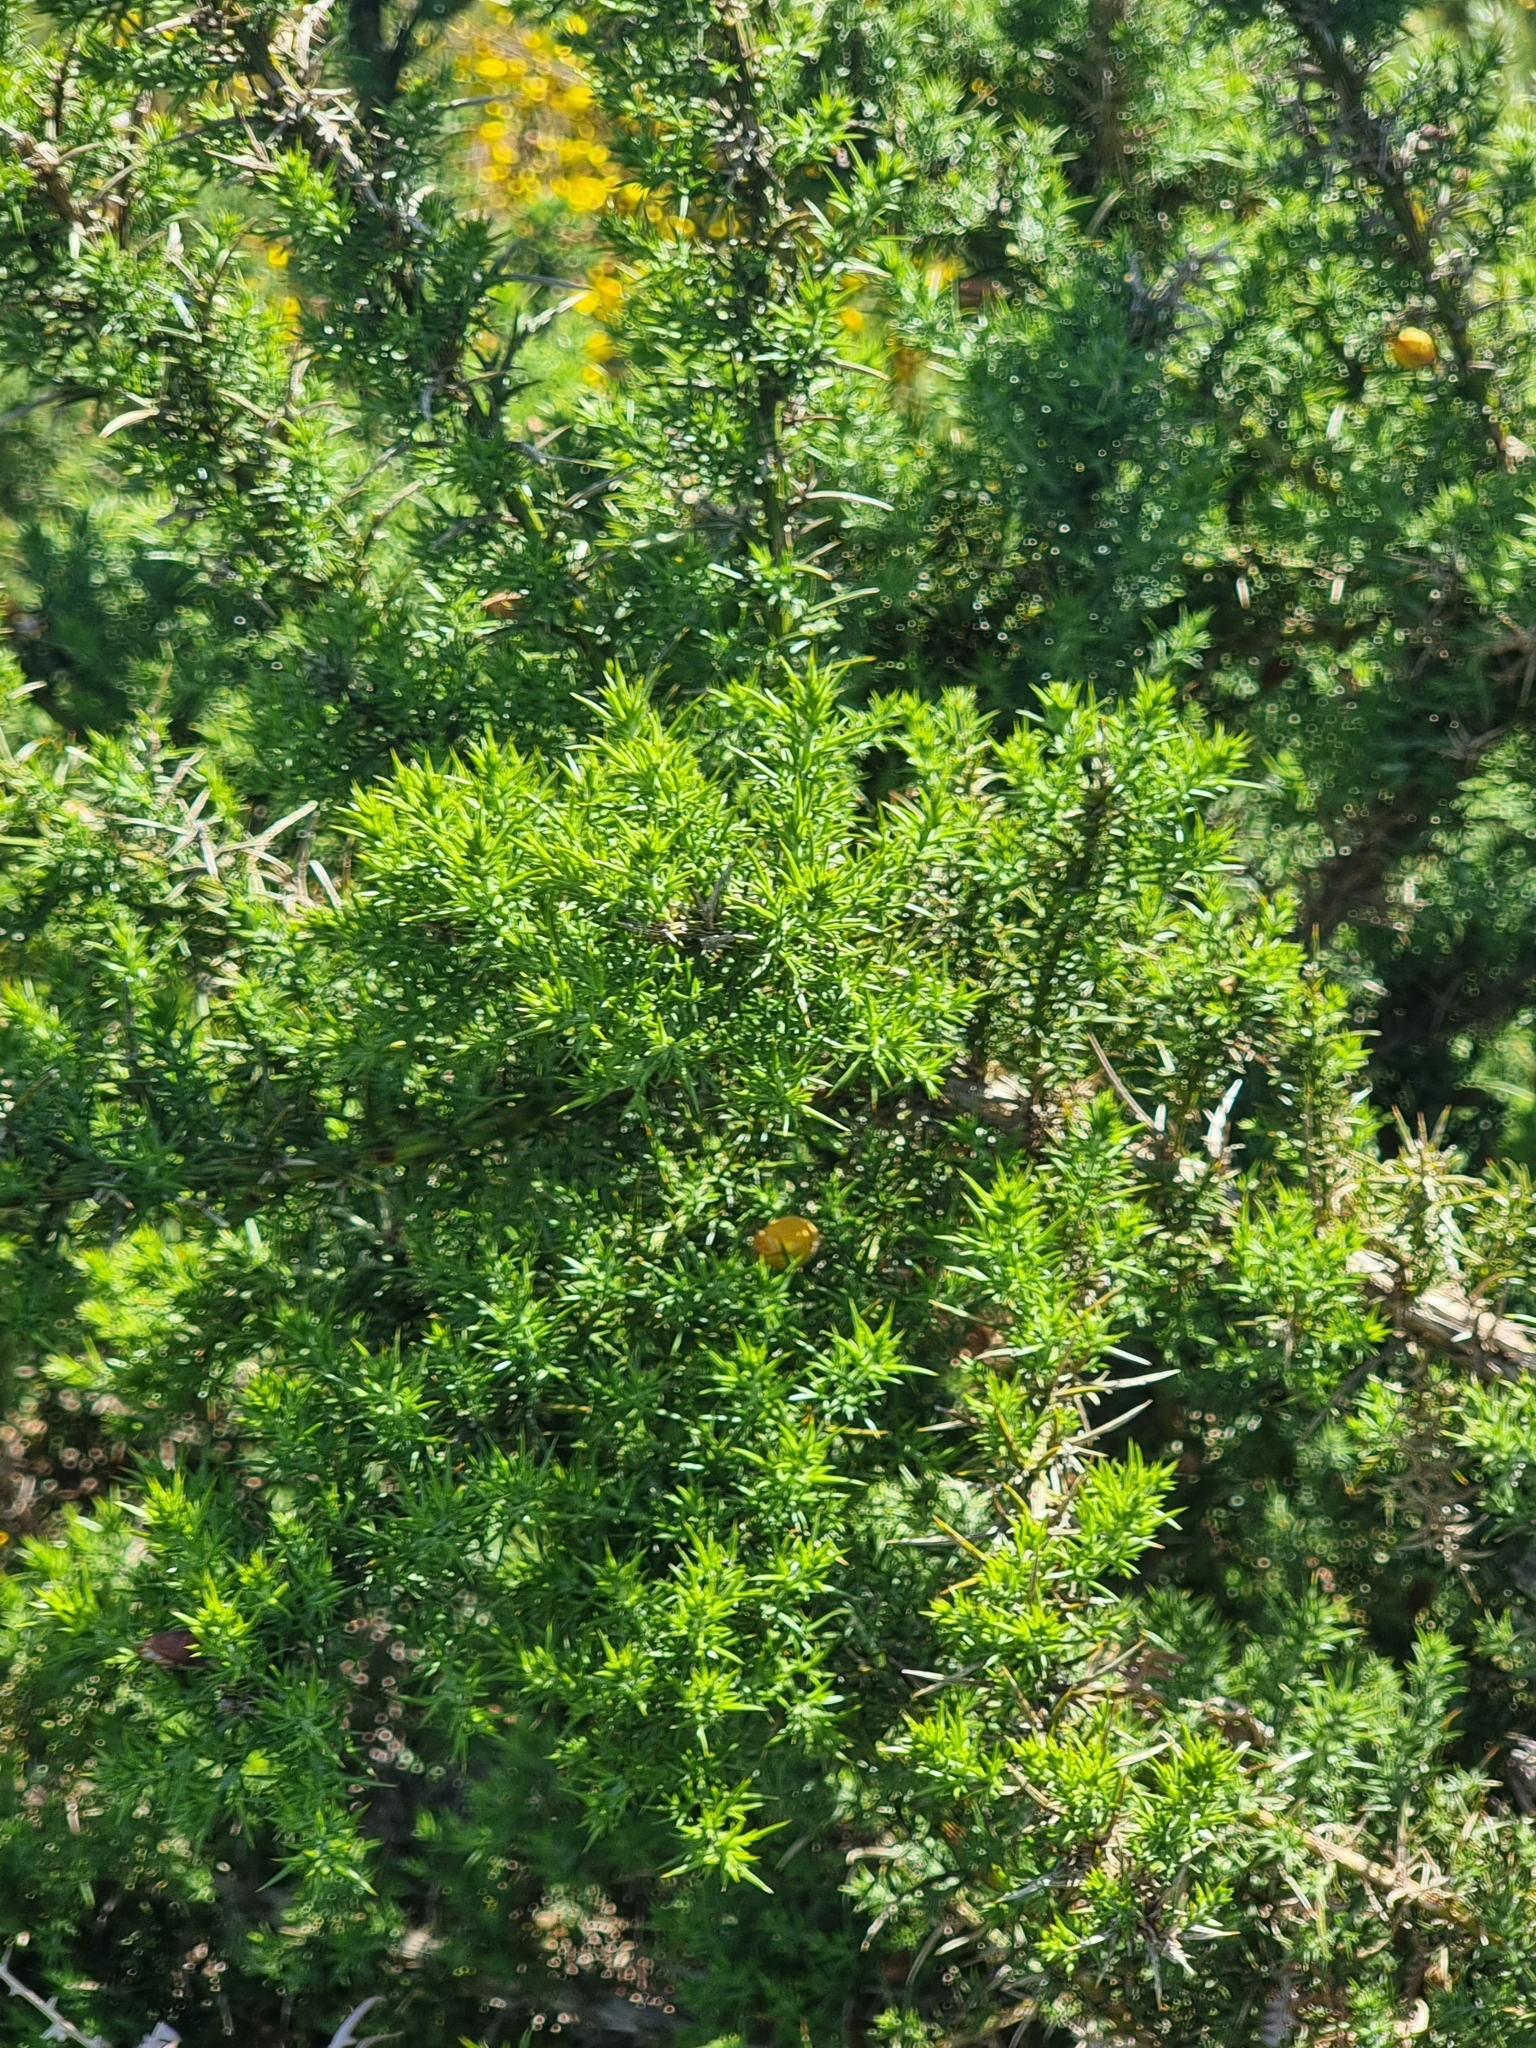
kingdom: Plantae
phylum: Tracheophyta
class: Magnoliopsida
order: Fabales
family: Fabaceae
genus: Ulex
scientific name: Ulex europaeus
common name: Common gorse
